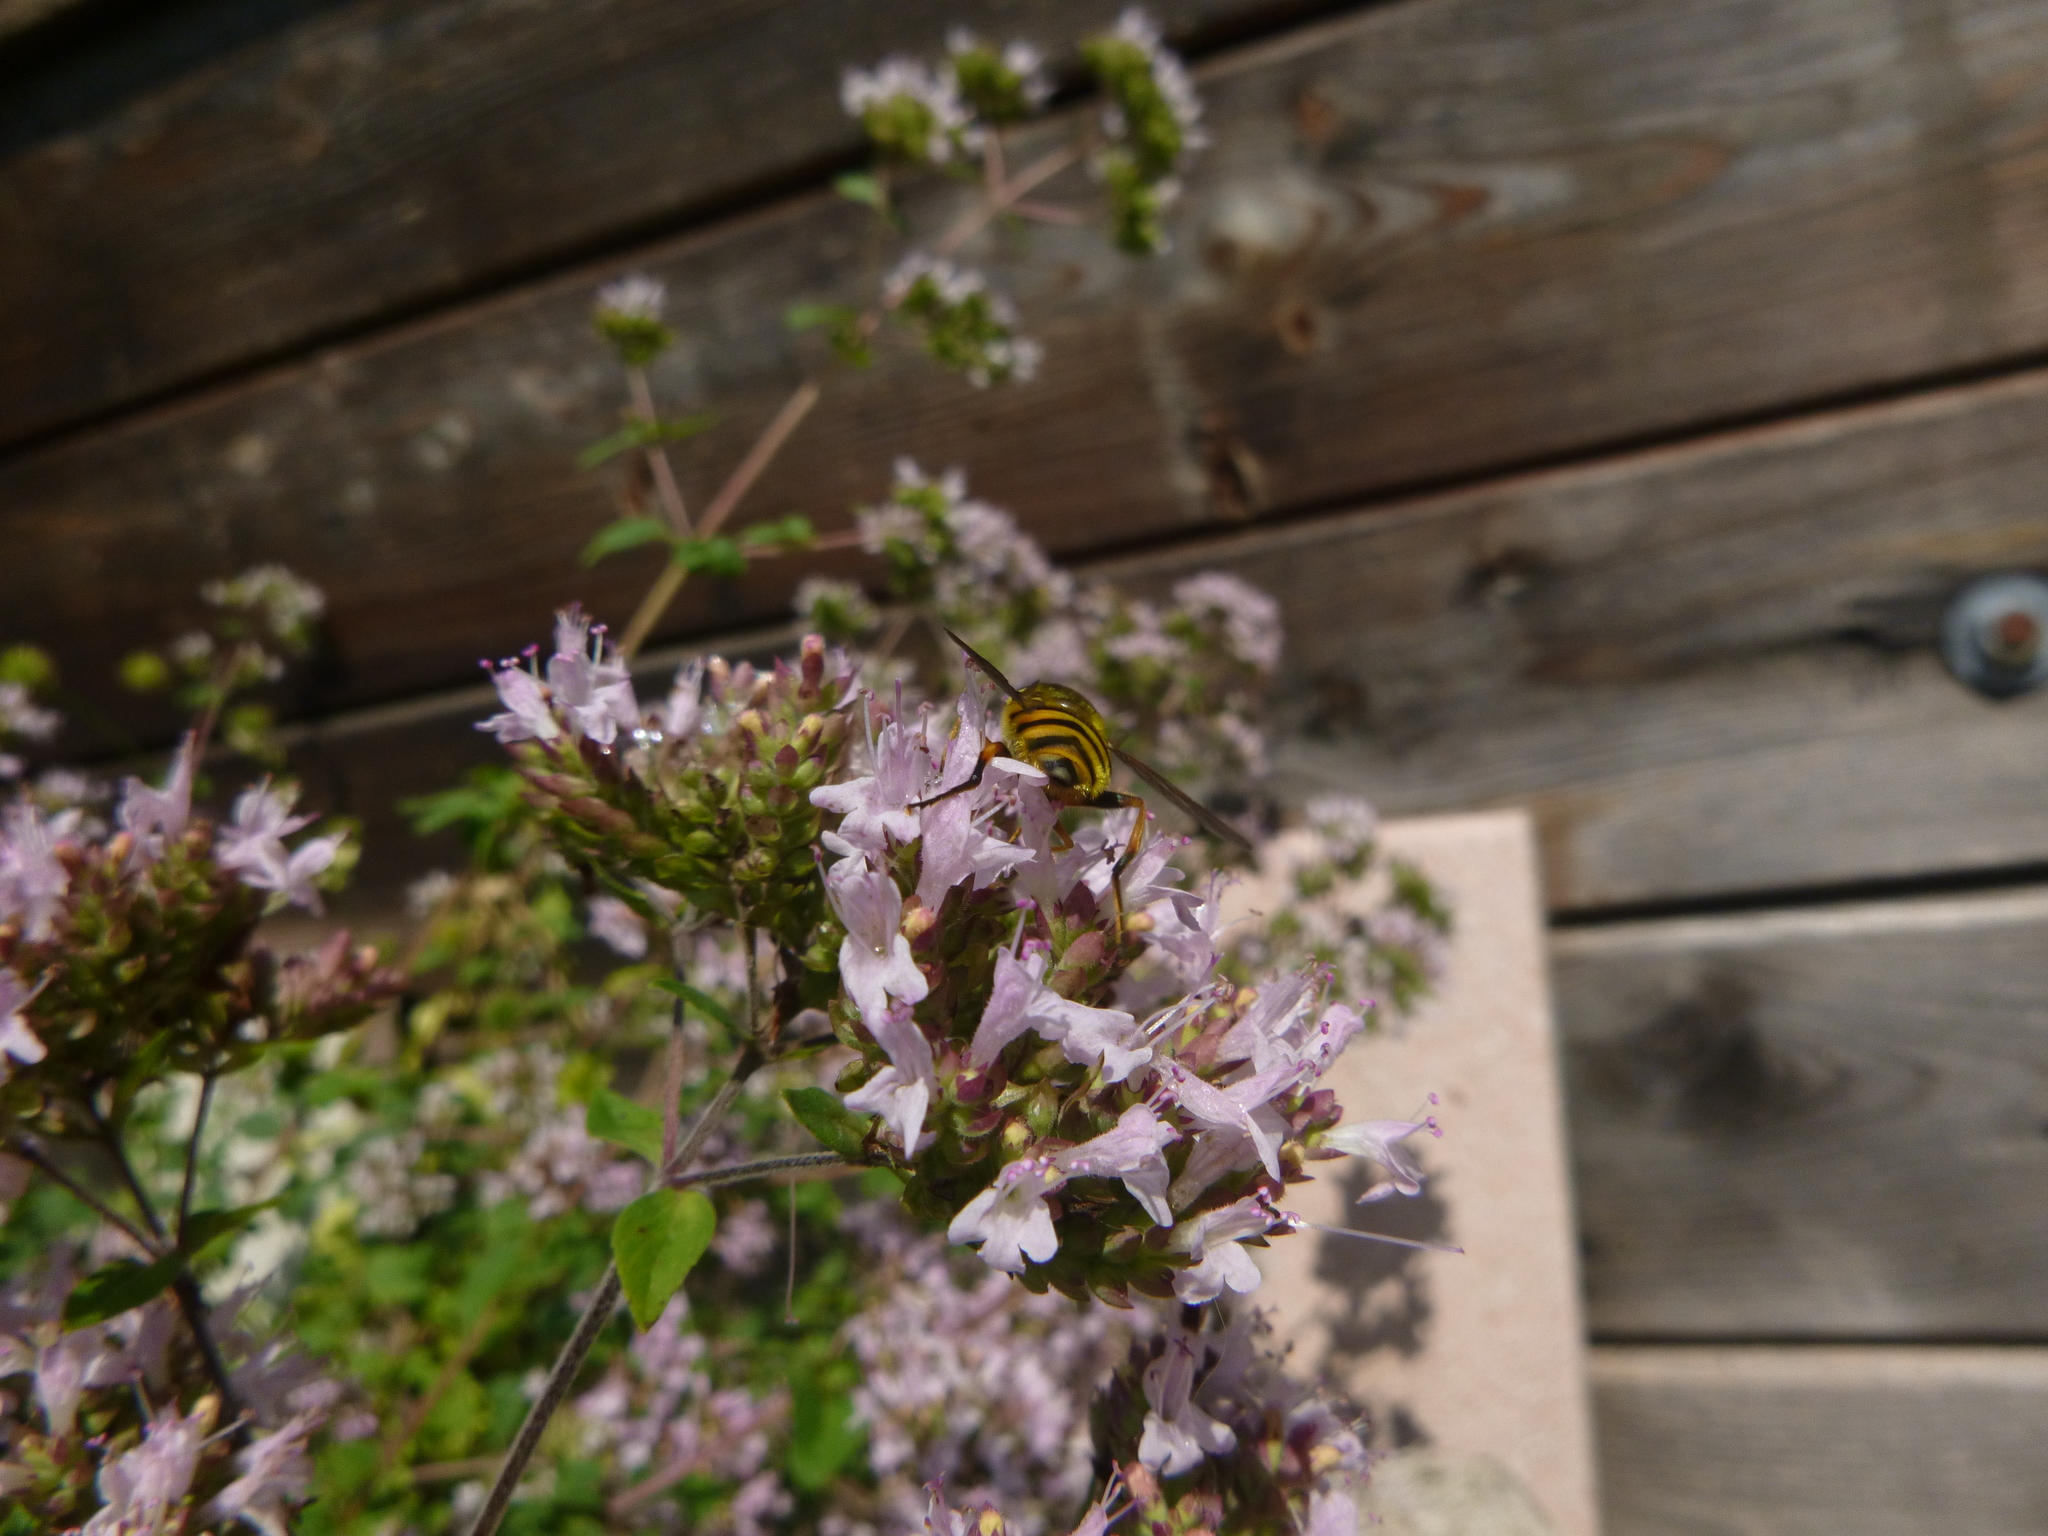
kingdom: Animalia
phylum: Arthropoda
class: Insecta
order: Diptera
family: Syrphidae
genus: Myathropa
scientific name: Myathropa florea
